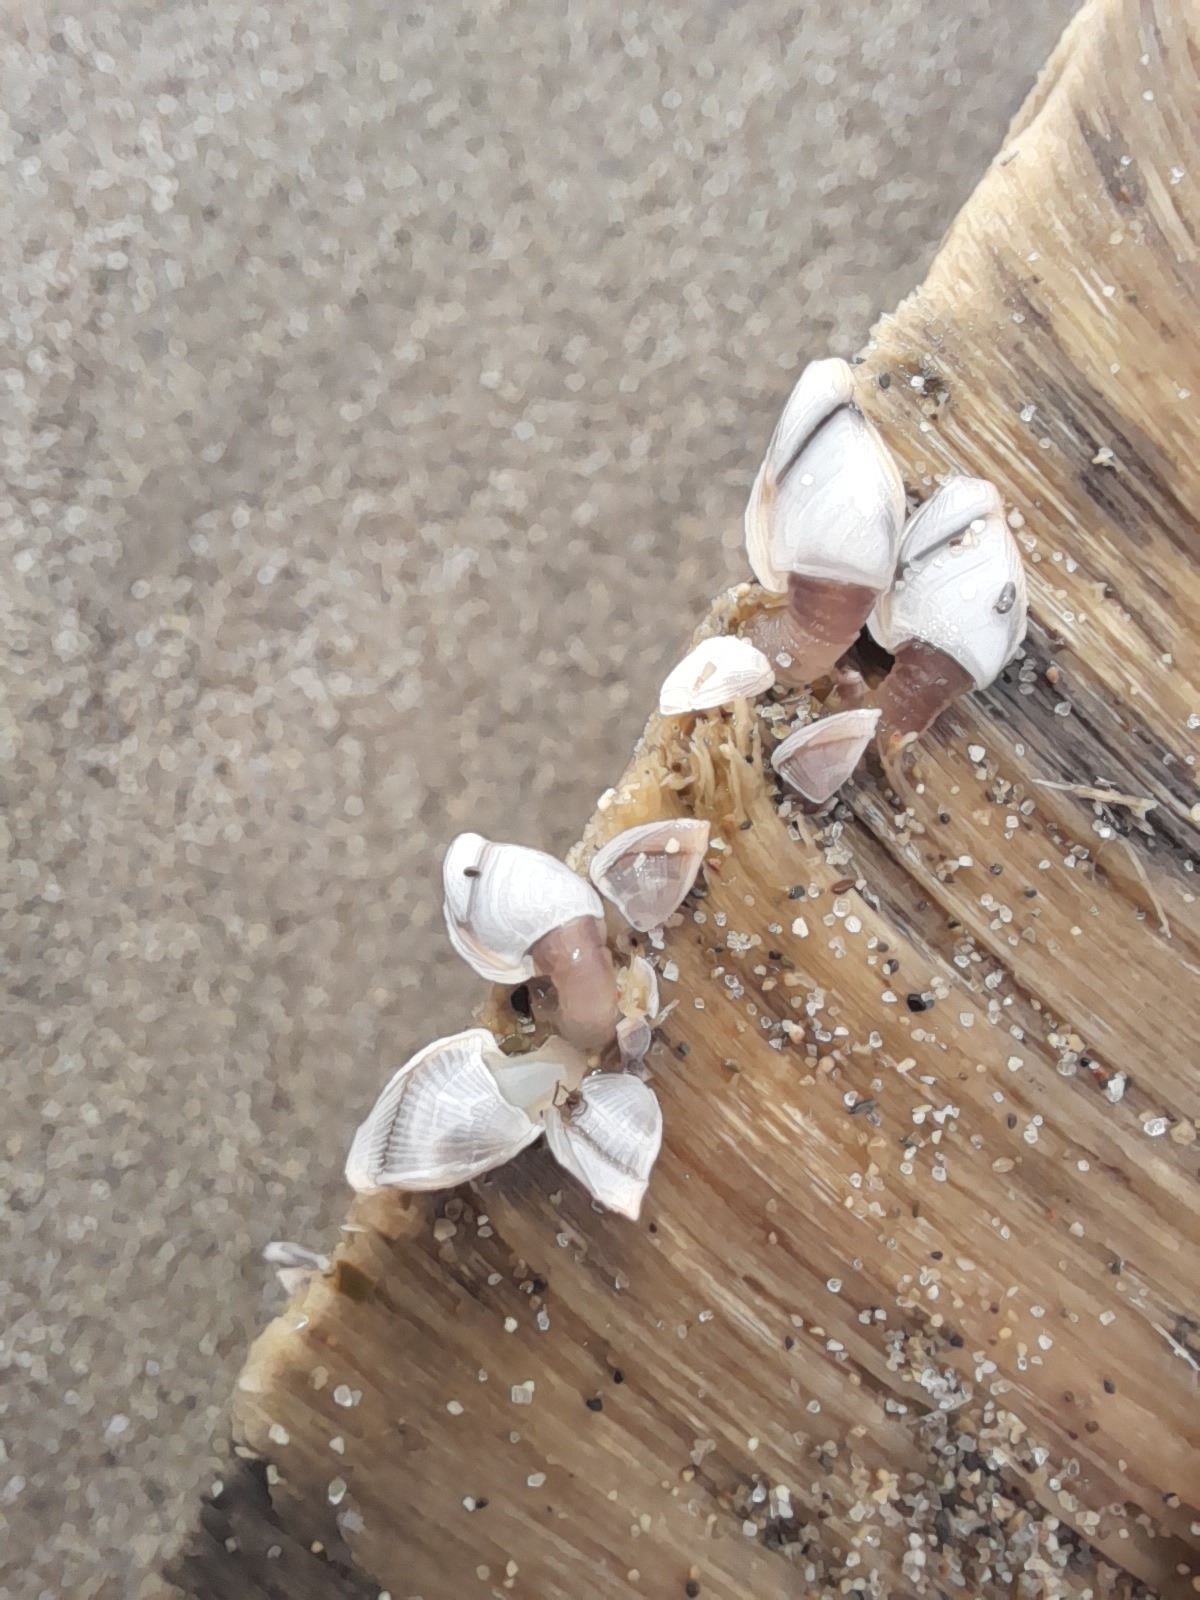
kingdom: Animalia
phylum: Arthropoda
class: Maxillopoda
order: Pedunculata
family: Lepadidae
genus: Lepas
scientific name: Lepas pectinata
